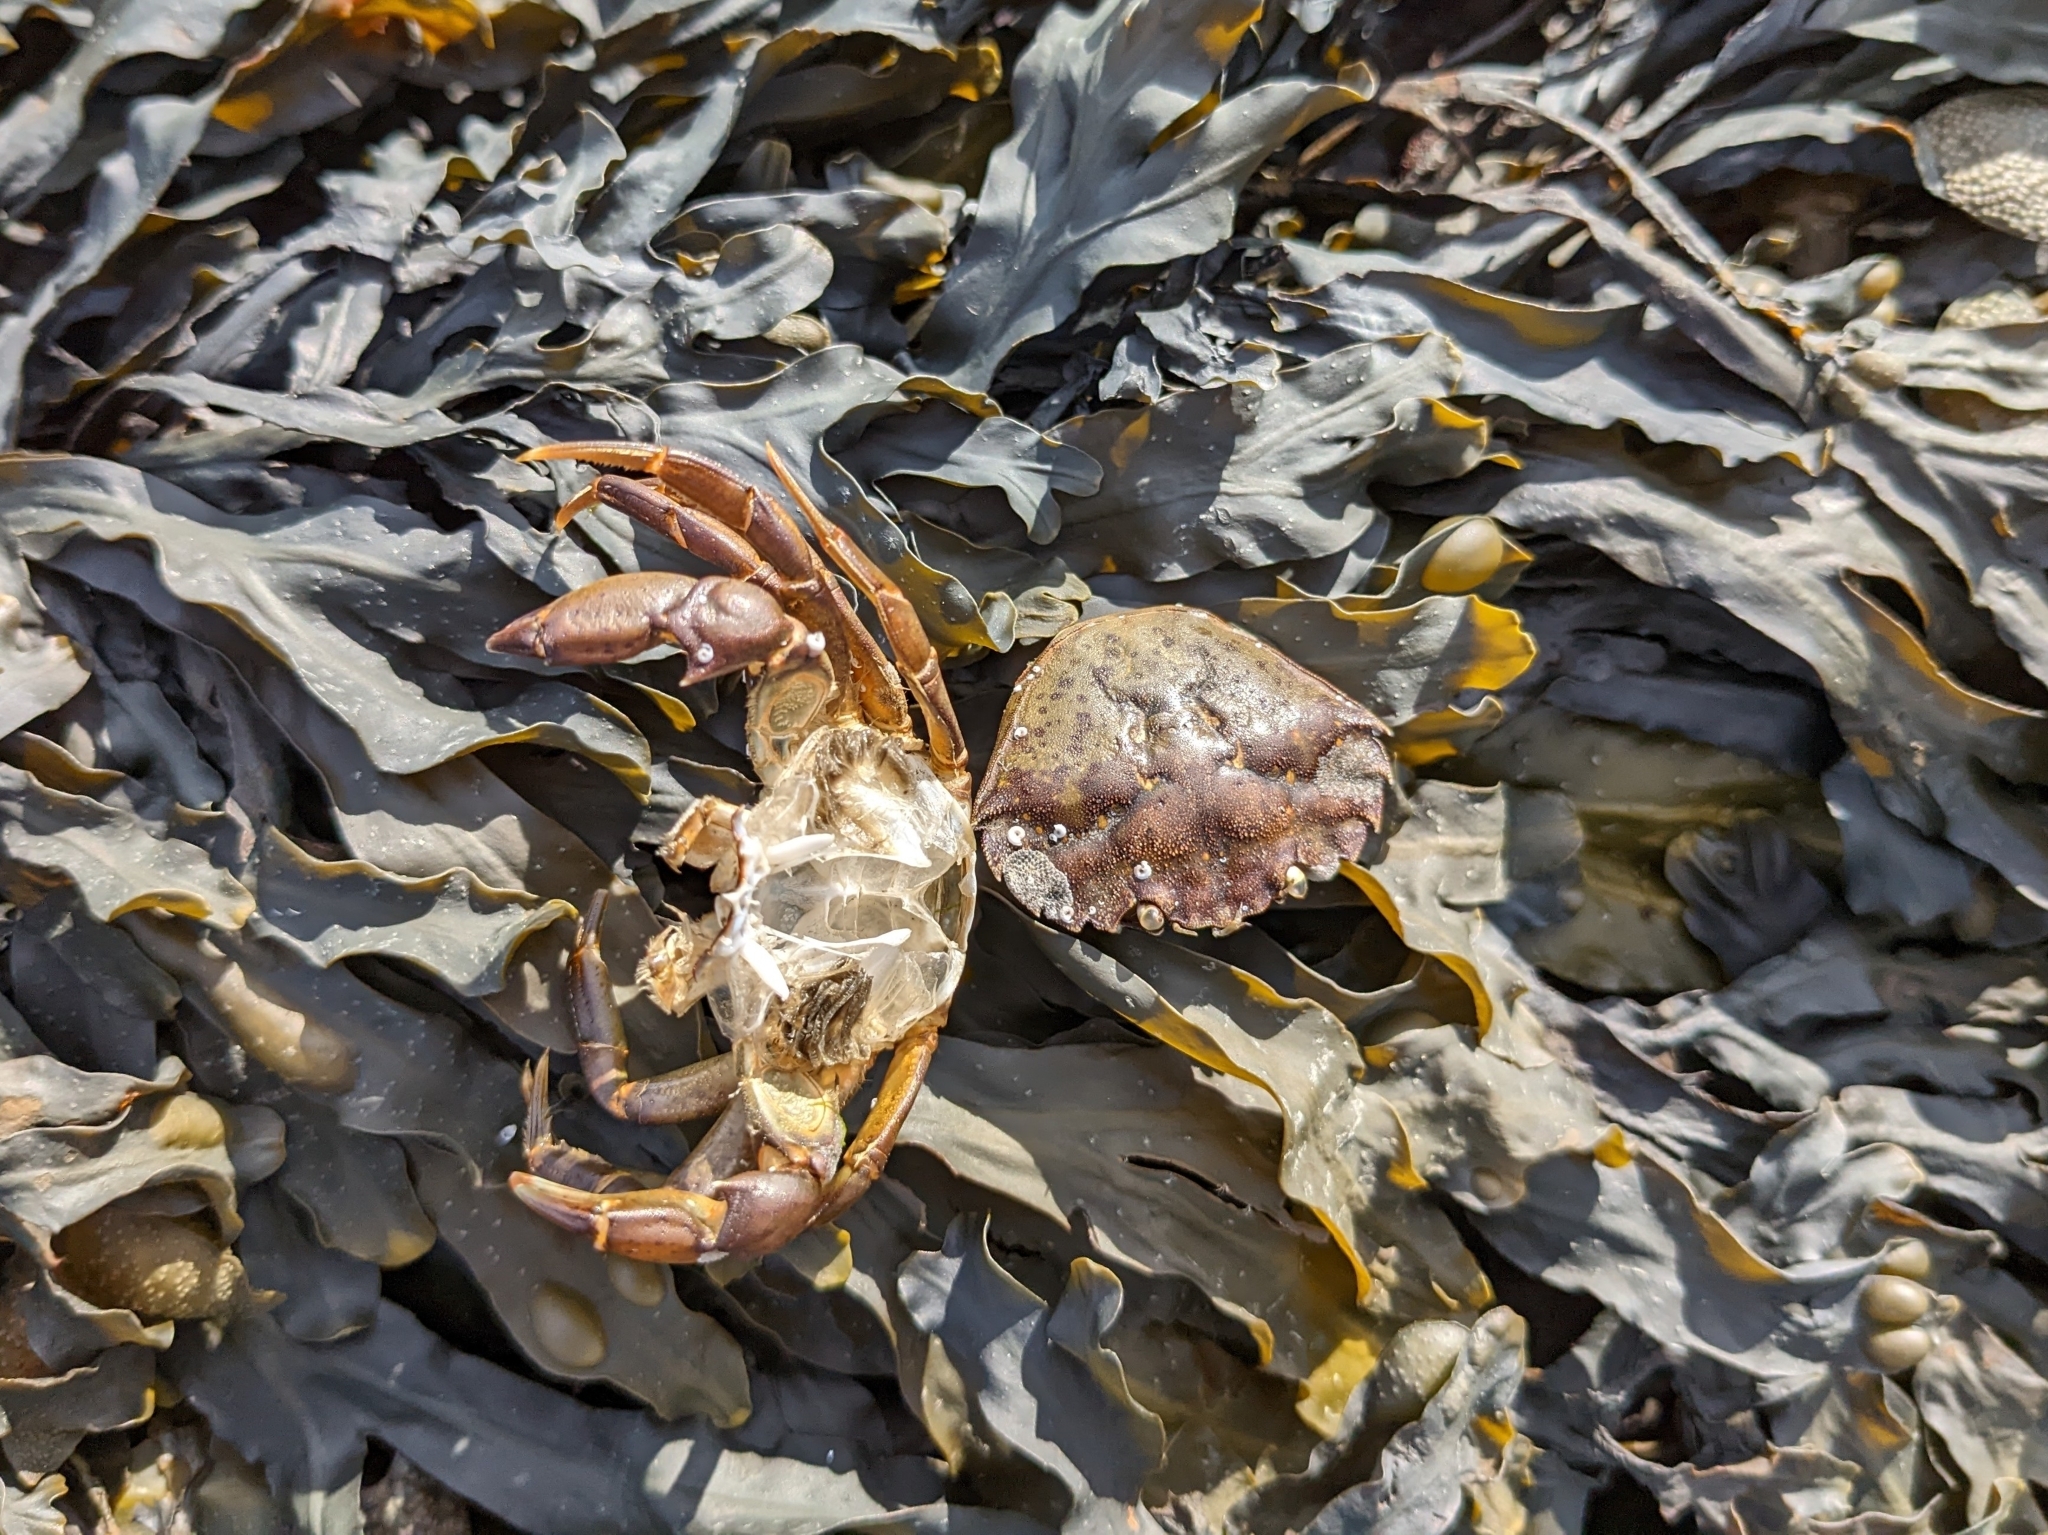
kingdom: Animalia
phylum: Arthropoda
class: Malacostraca
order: Decapoda
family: Carcinidae
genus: Carcinus
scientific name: Carcinus maenas
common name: European green crab
